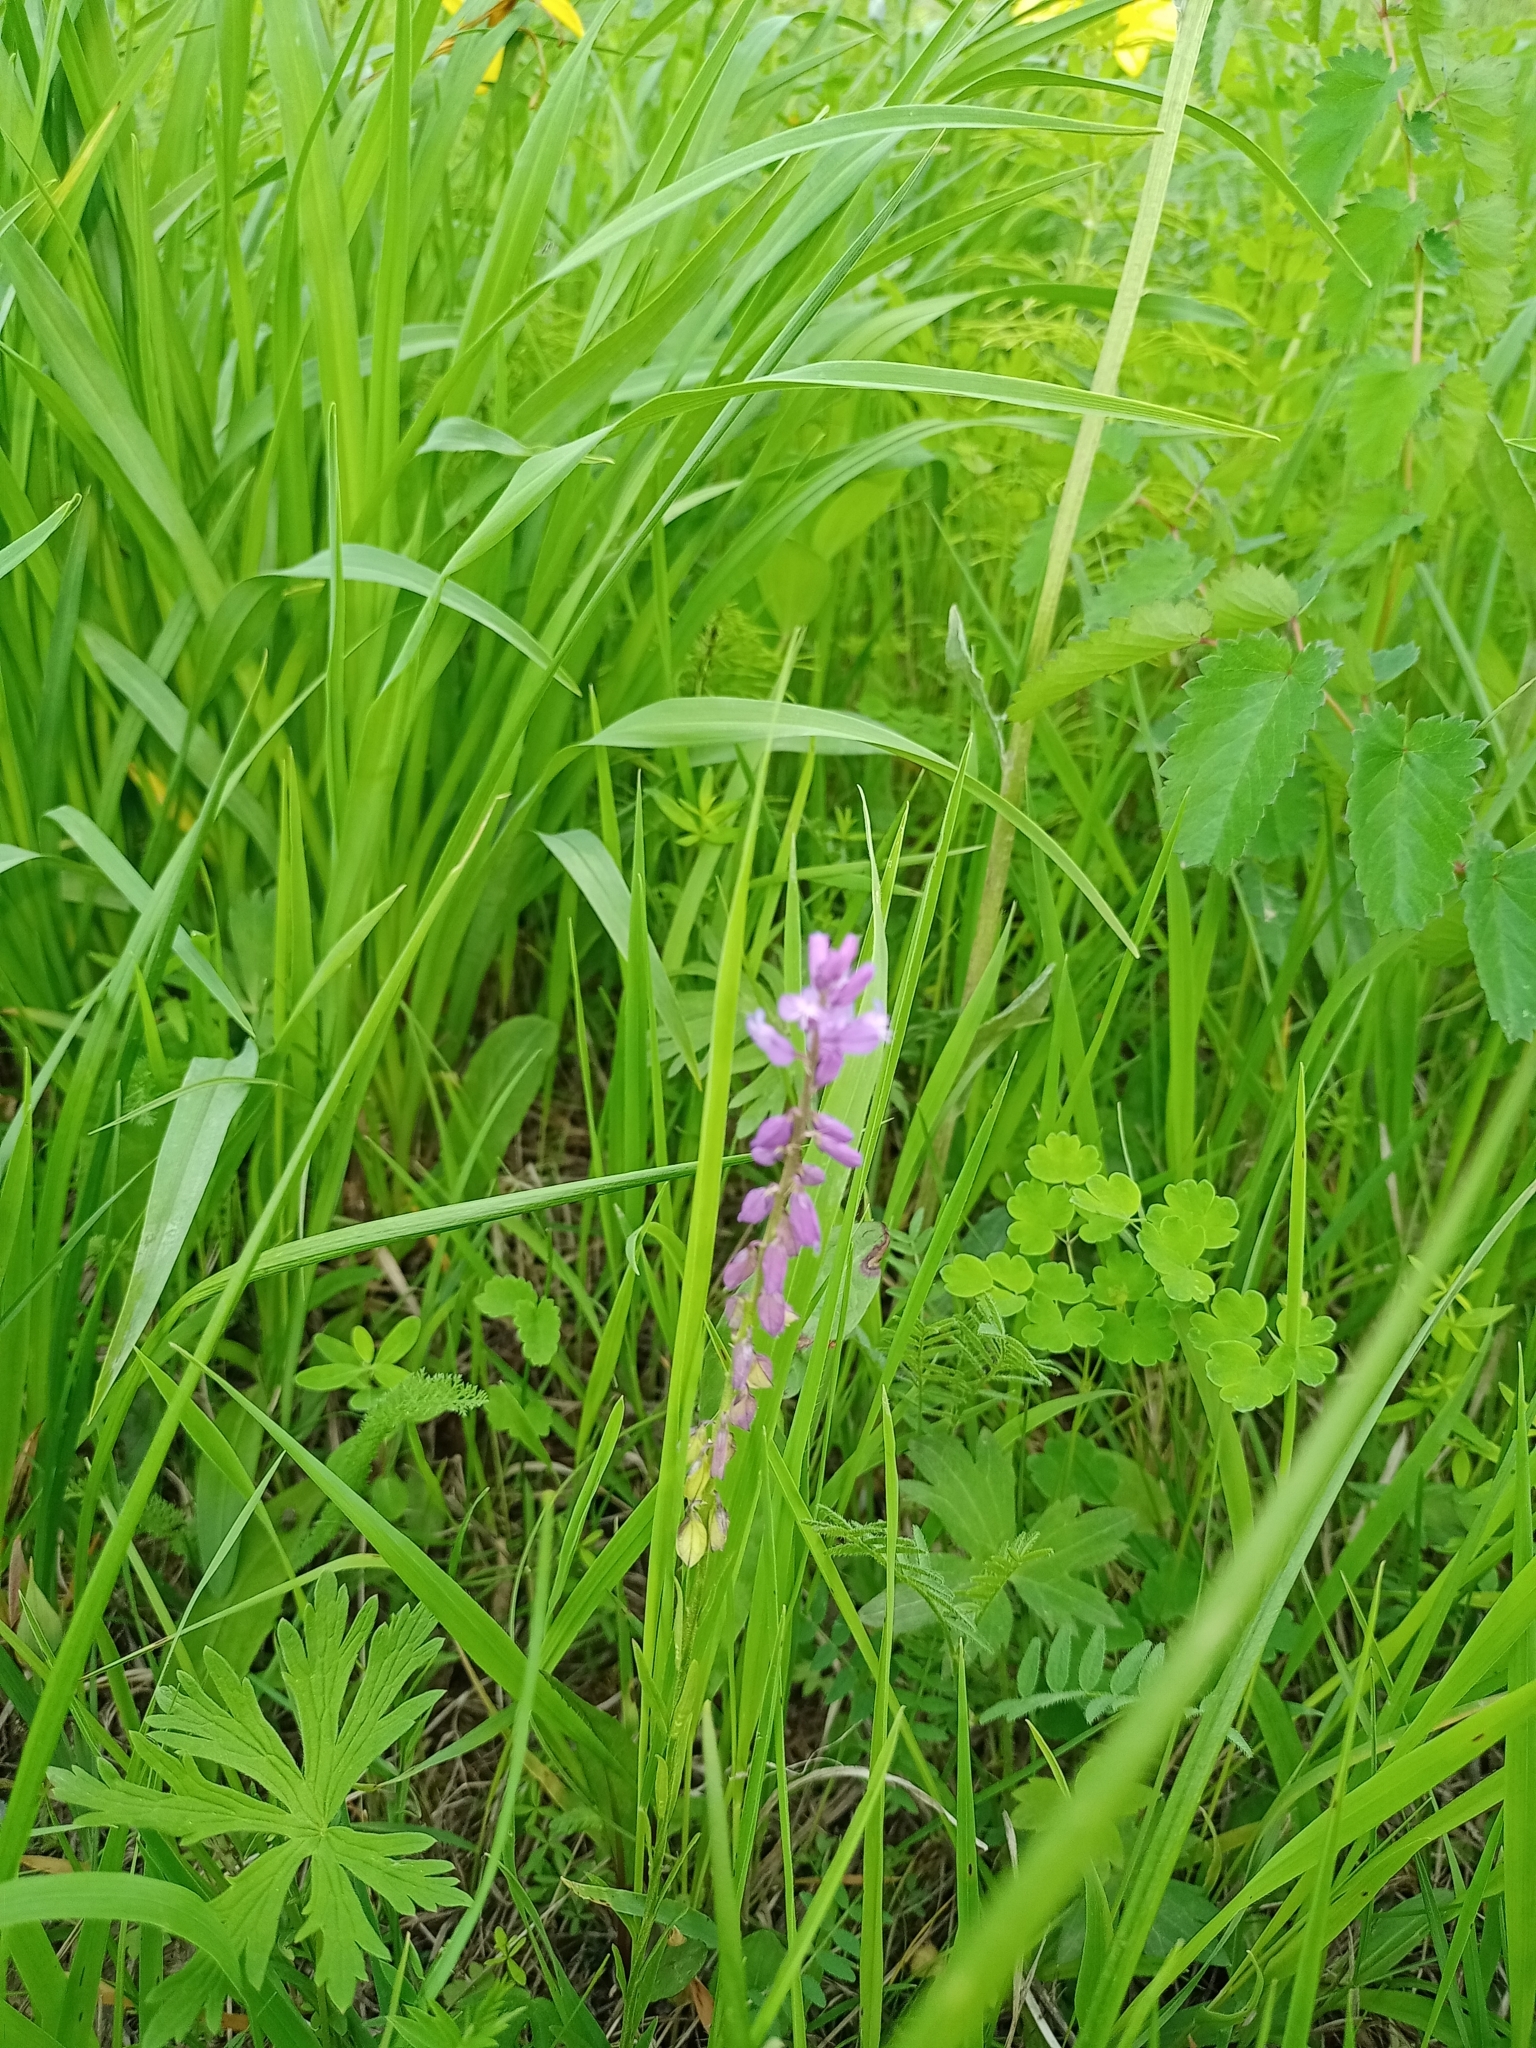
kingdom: Plantae
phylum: Tracheophyta
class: Magnoliopsida
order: Fabales
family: Polygalaceae
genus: Polygala
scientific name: Polygala comosa
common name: Tufted milkwort
